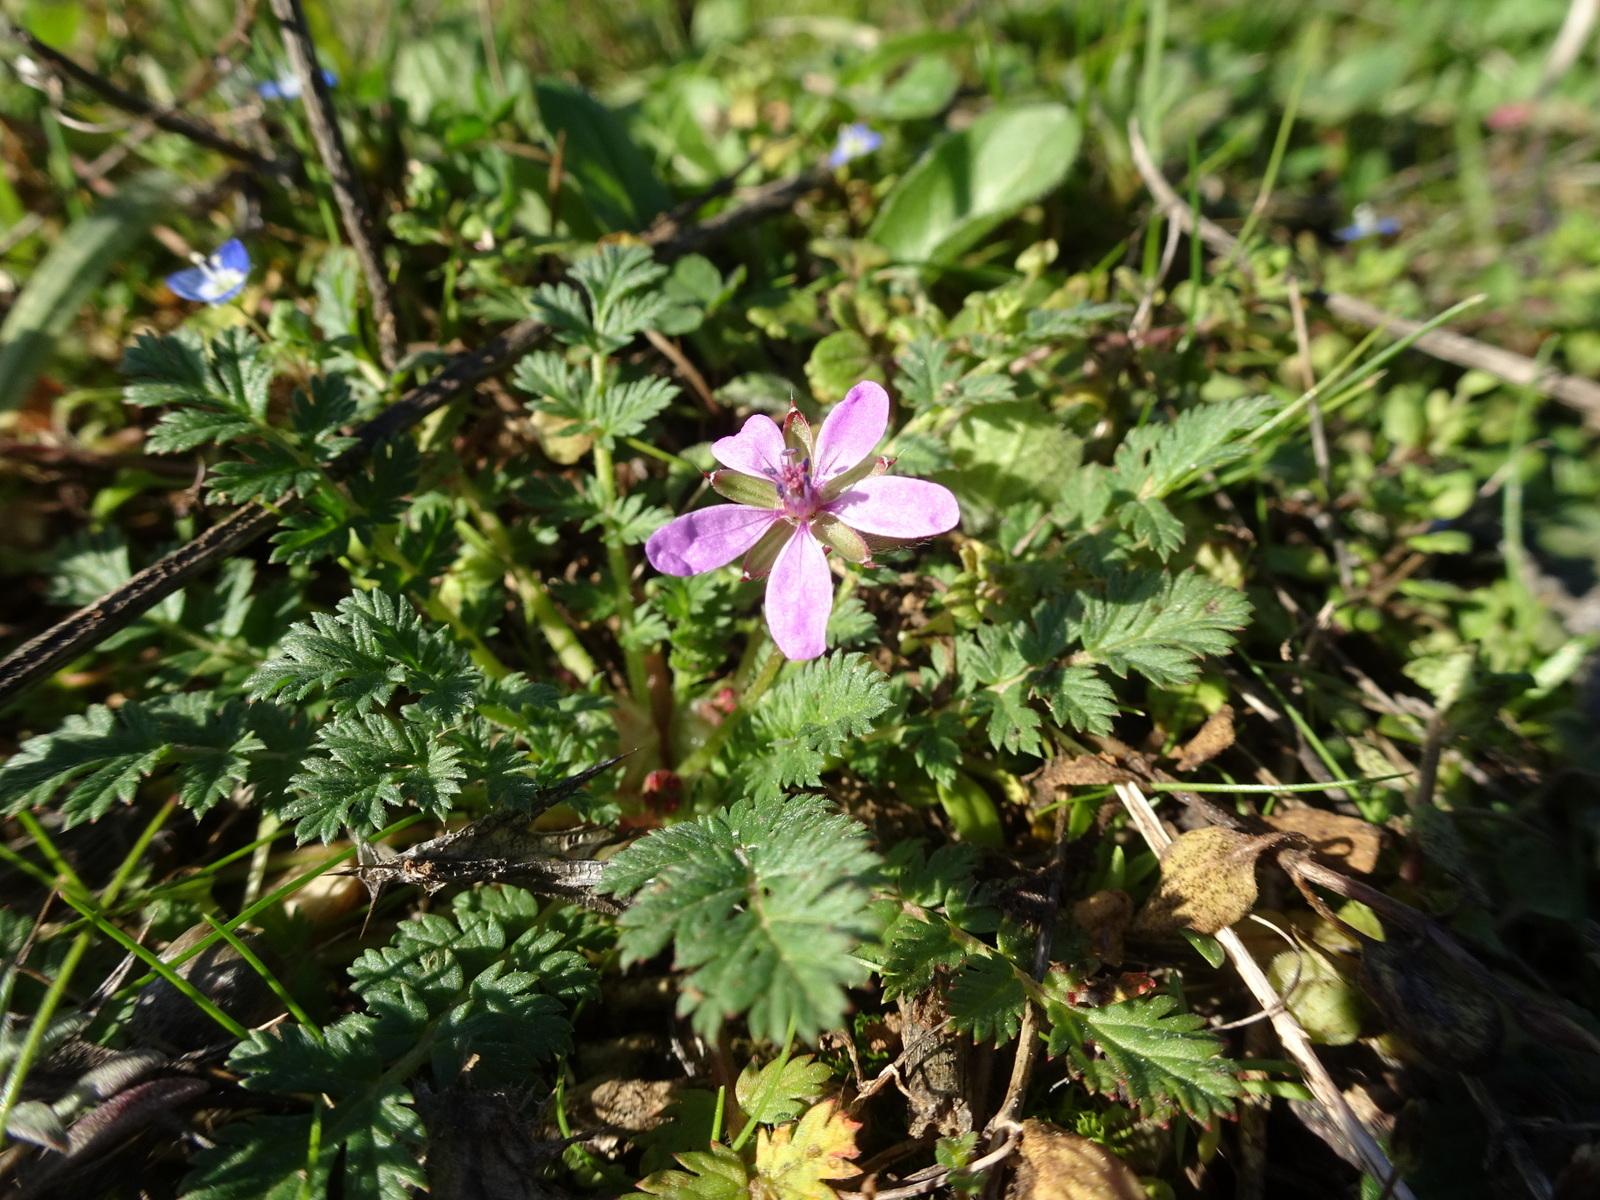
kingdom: Plantae
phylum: Tracheophyta
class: Magnoliopsida
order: Geraniales
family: Geraniaceae
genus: Erodium
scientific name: Erodium cicutarium
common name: Common stork's-bill
